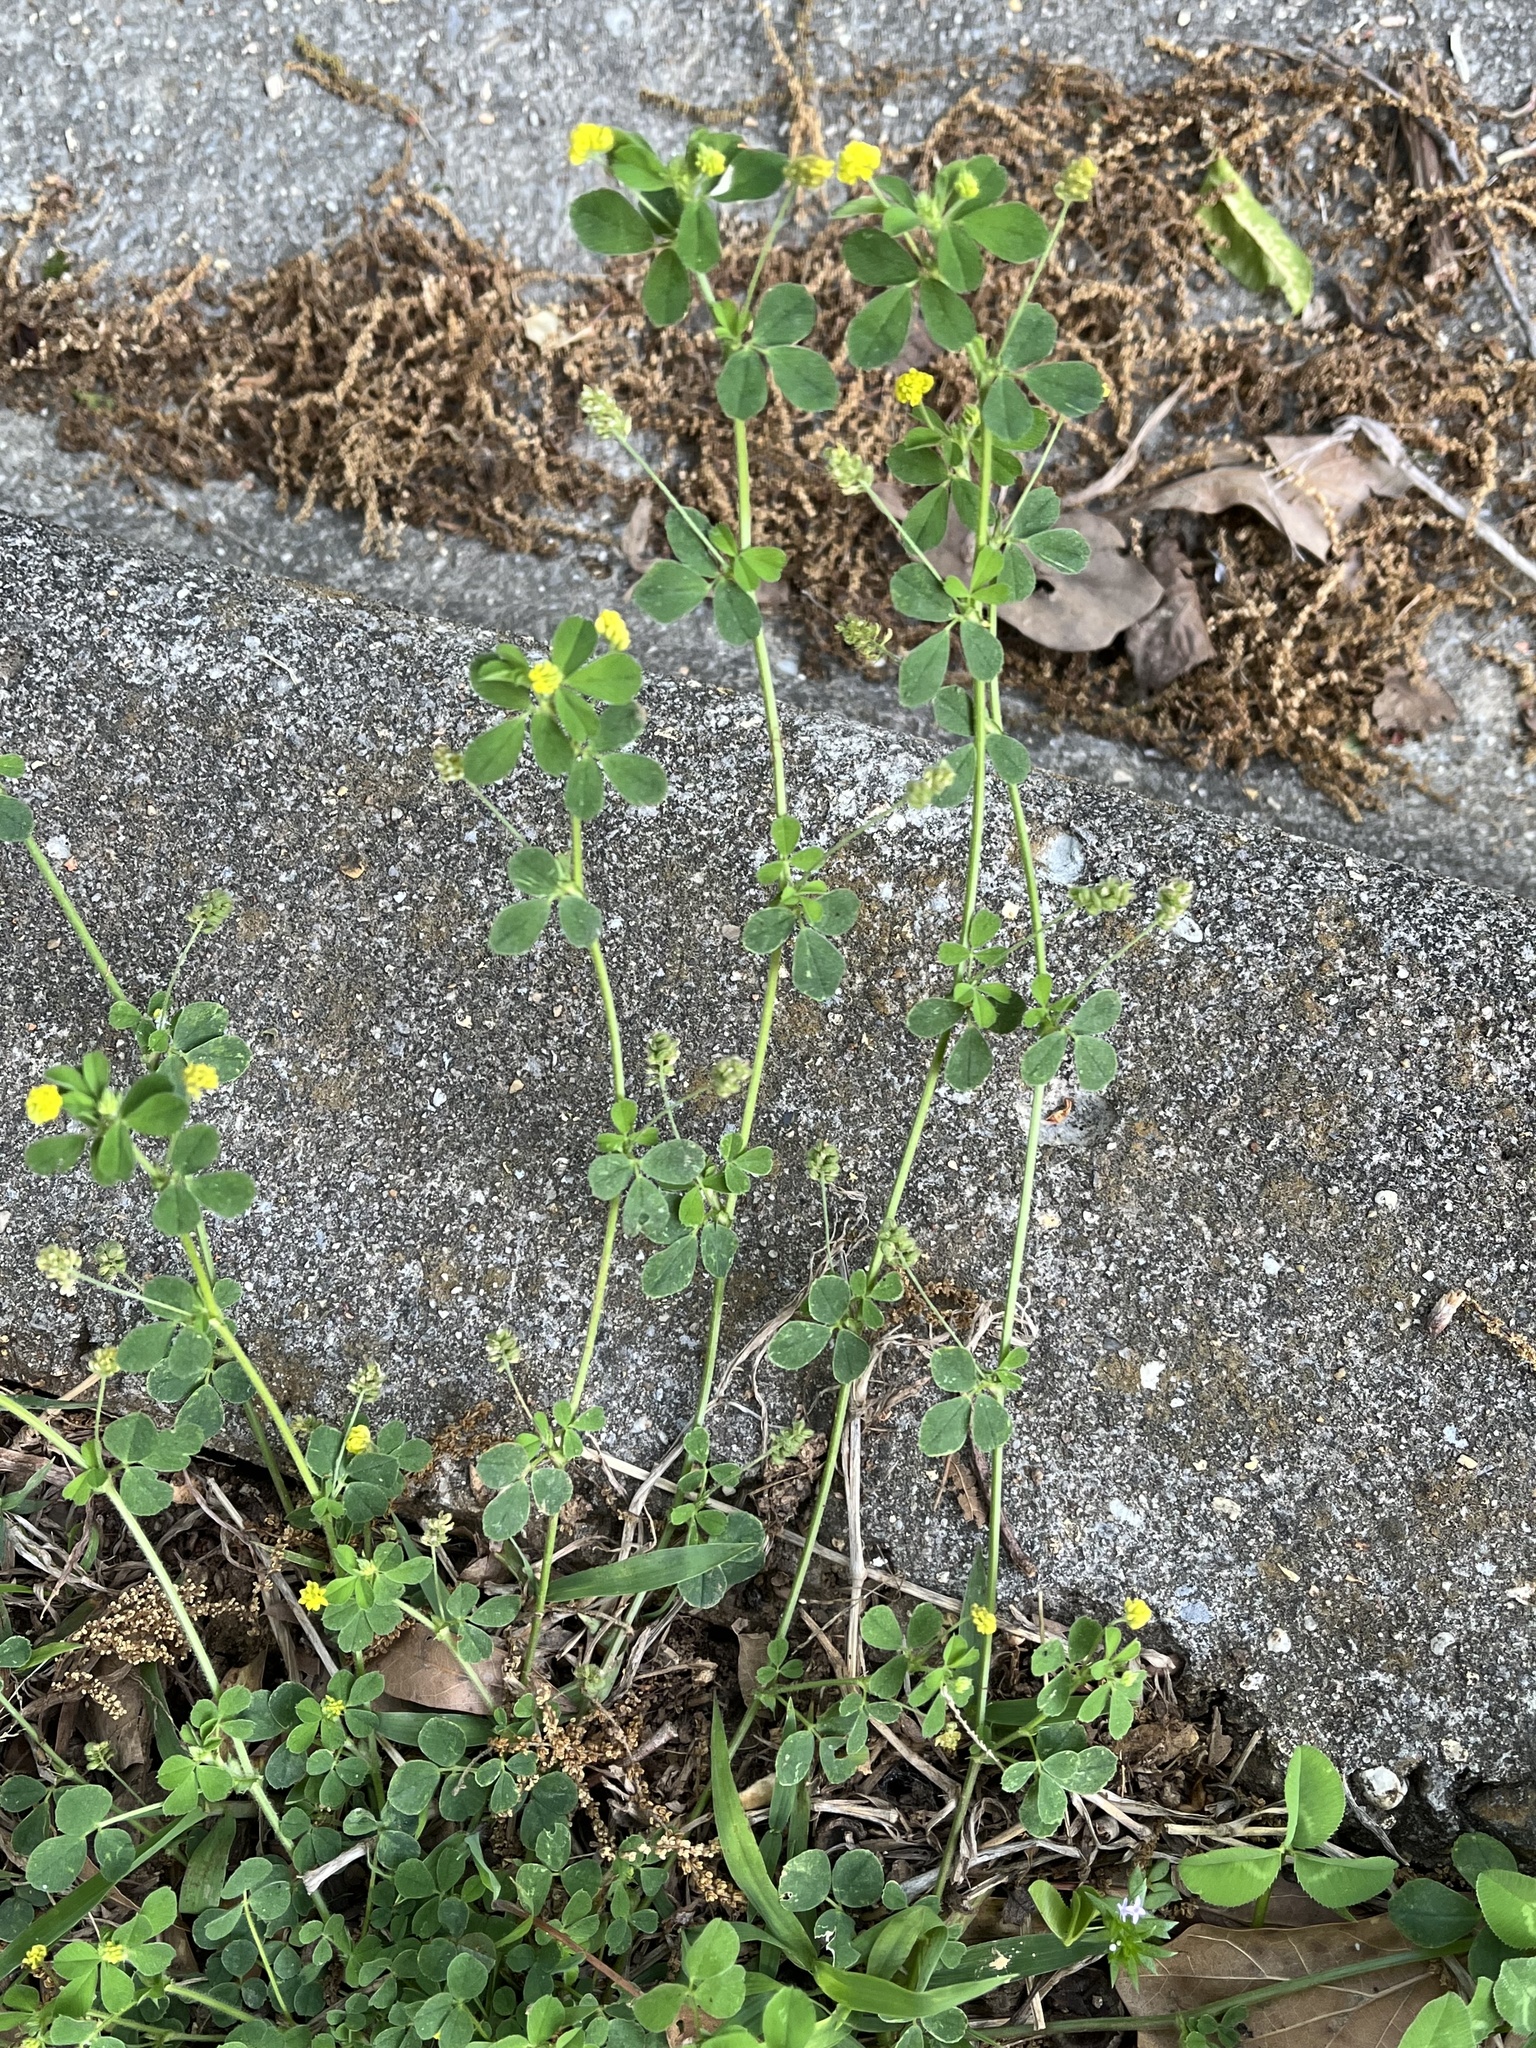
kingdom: Plantae
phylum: Tracheophyta
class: Magnoliopsida
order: Fabales
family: Fabaceae
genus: Medicago
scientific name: Medicago lupulina
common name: Black medick
